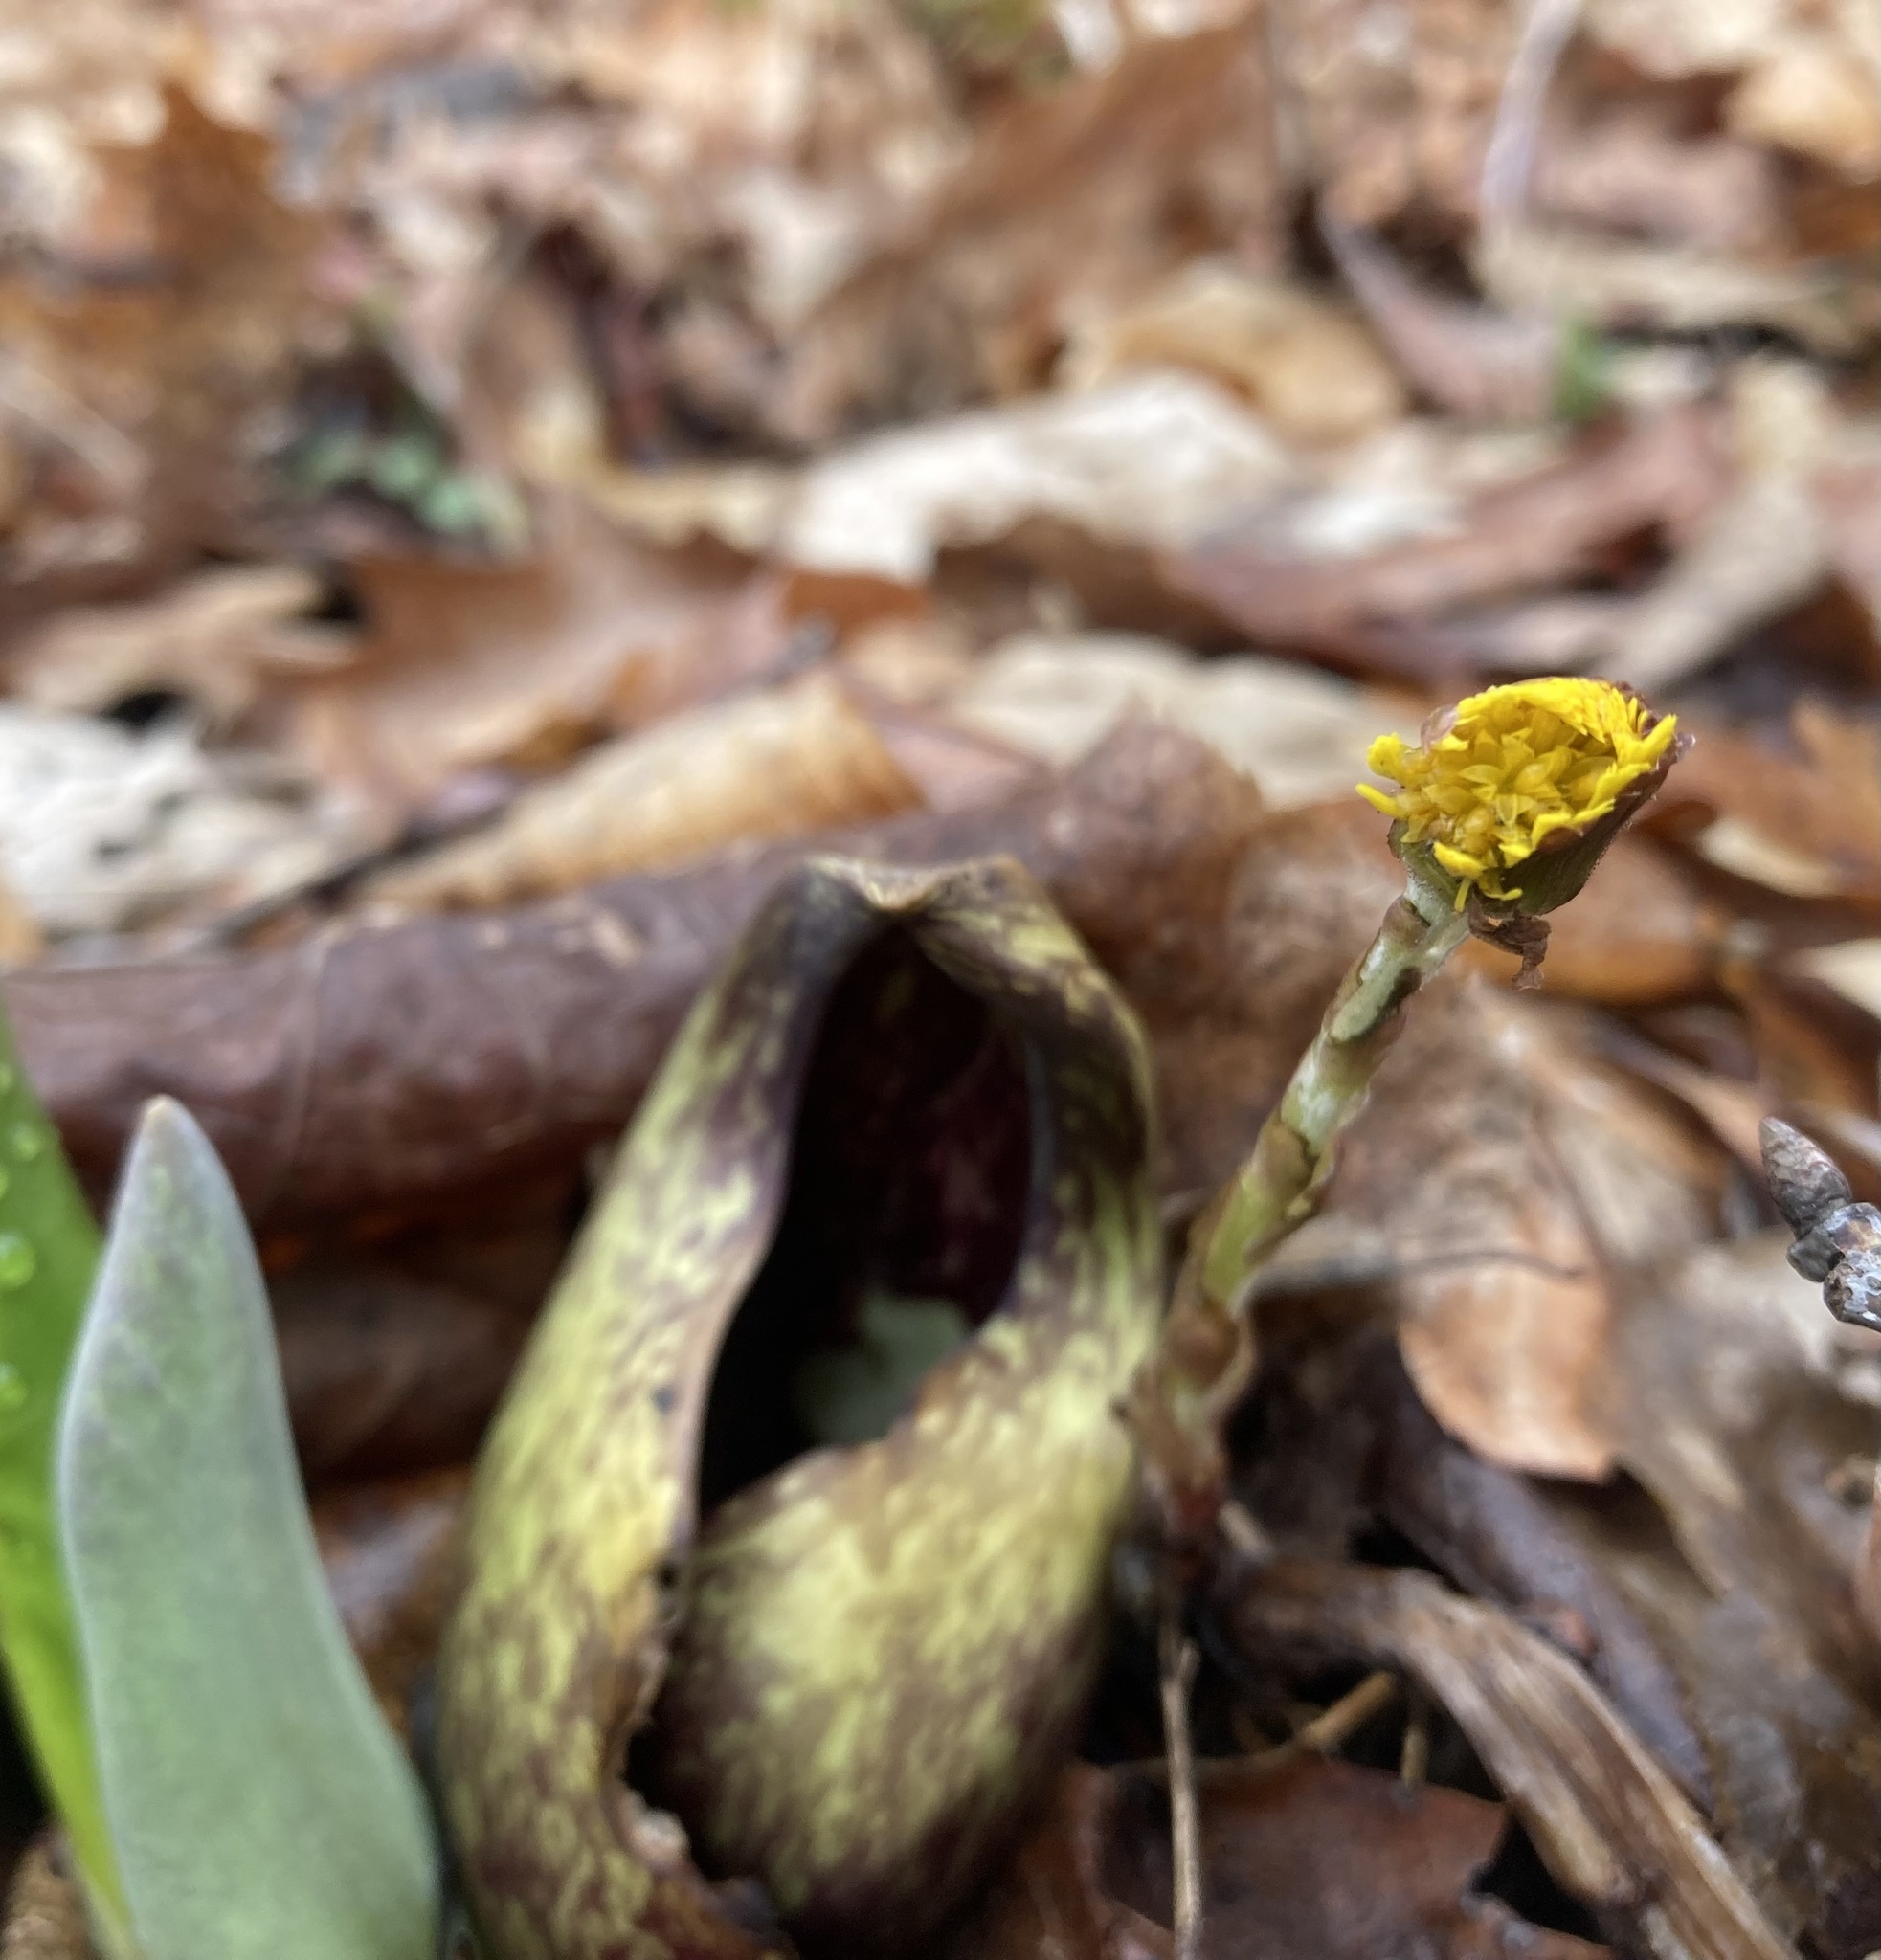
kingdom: Plantae
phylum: Tracheophyta
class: Magnoliopsida
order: Asterales
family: Asteraceae
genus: Tussilago
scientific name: Tussilago farfara
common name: Coltsfoot
